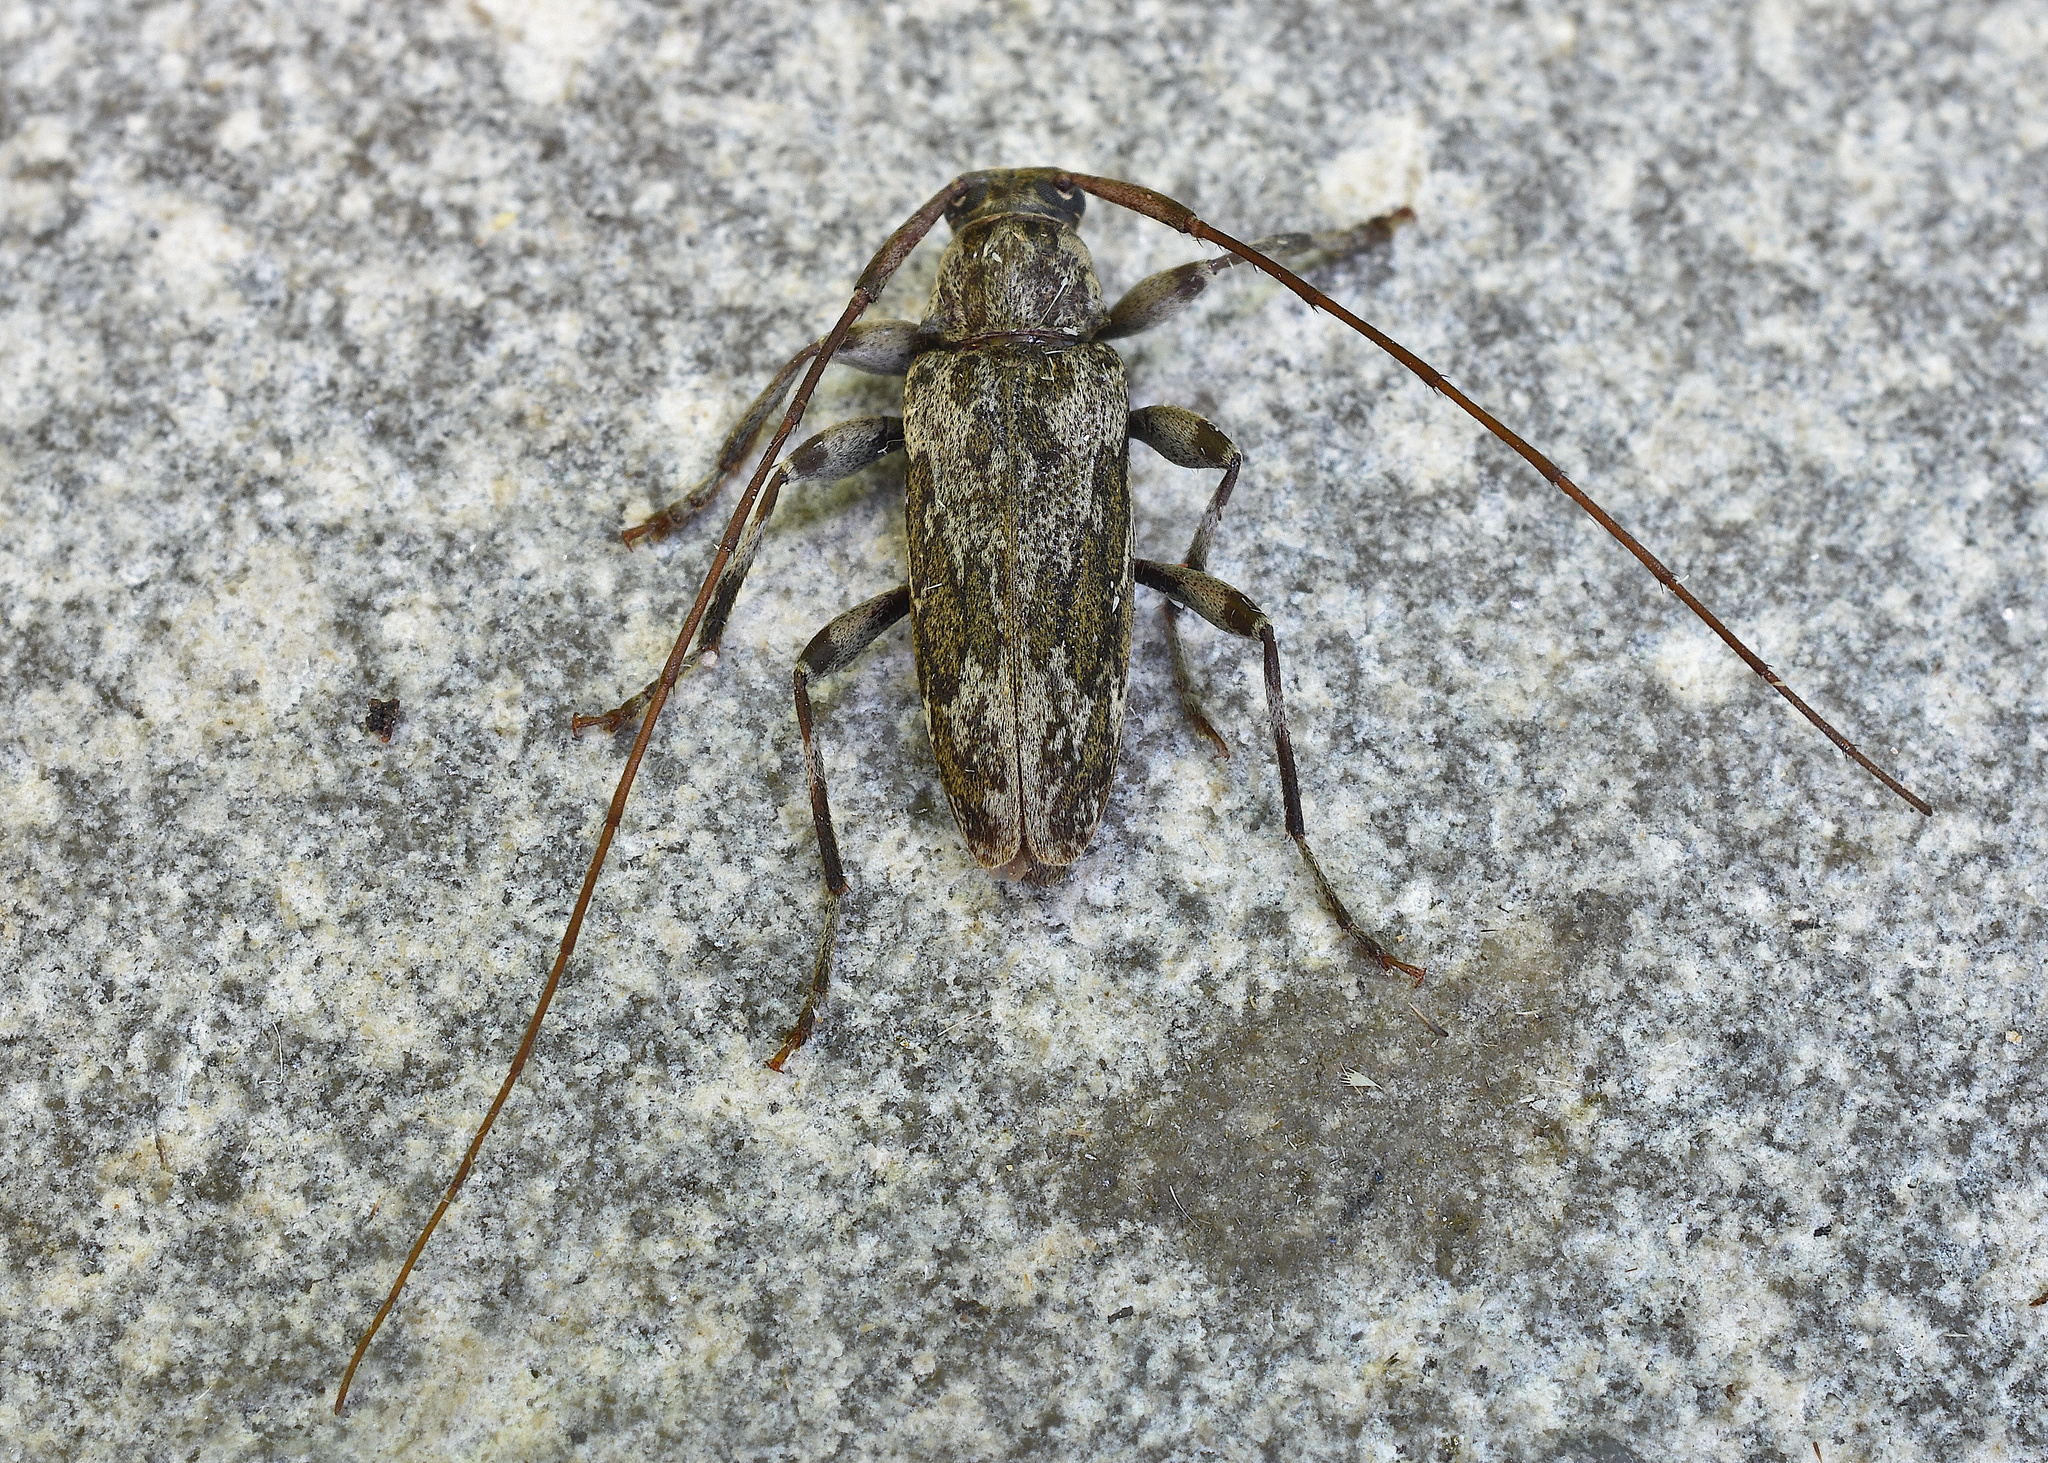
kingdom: Animalia
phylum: Arthropoda
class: Insecta
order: Coleoptera
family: Cerambycidae
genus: Lepturges
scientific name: Lepturges confluens
